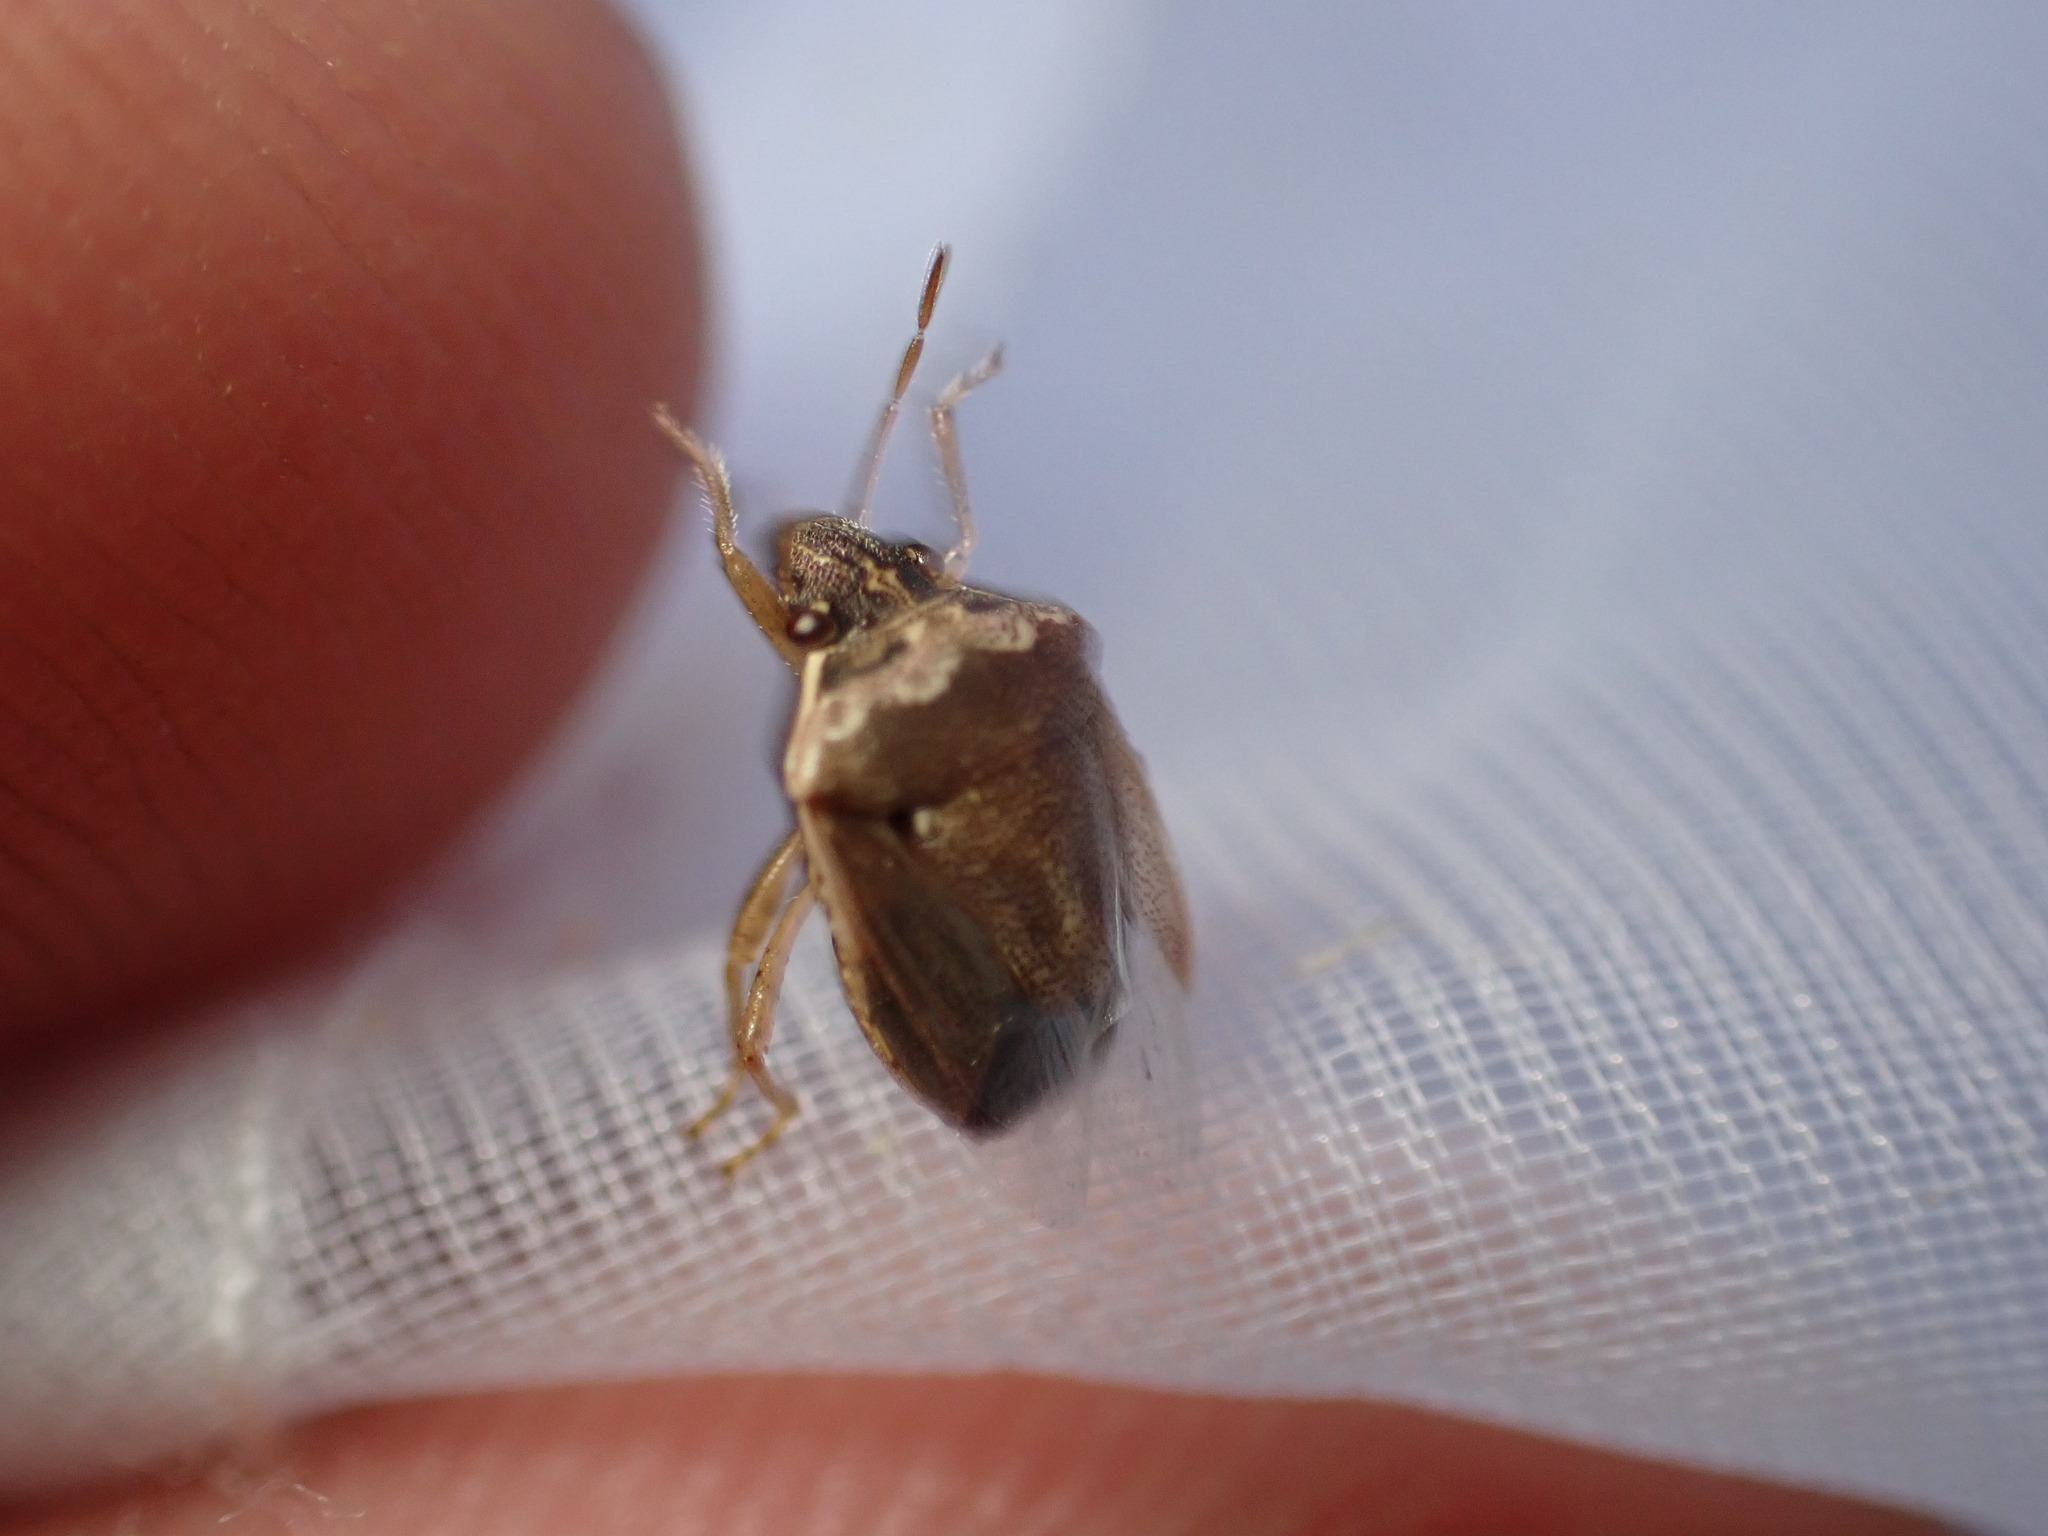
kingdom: Animalia
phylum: Arthropoda
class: Insecta
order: Hemiptera
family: Pentatomidae
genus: Eysarcoris
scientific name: Eysarcoris ventralis
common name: White-spotted stink bug
